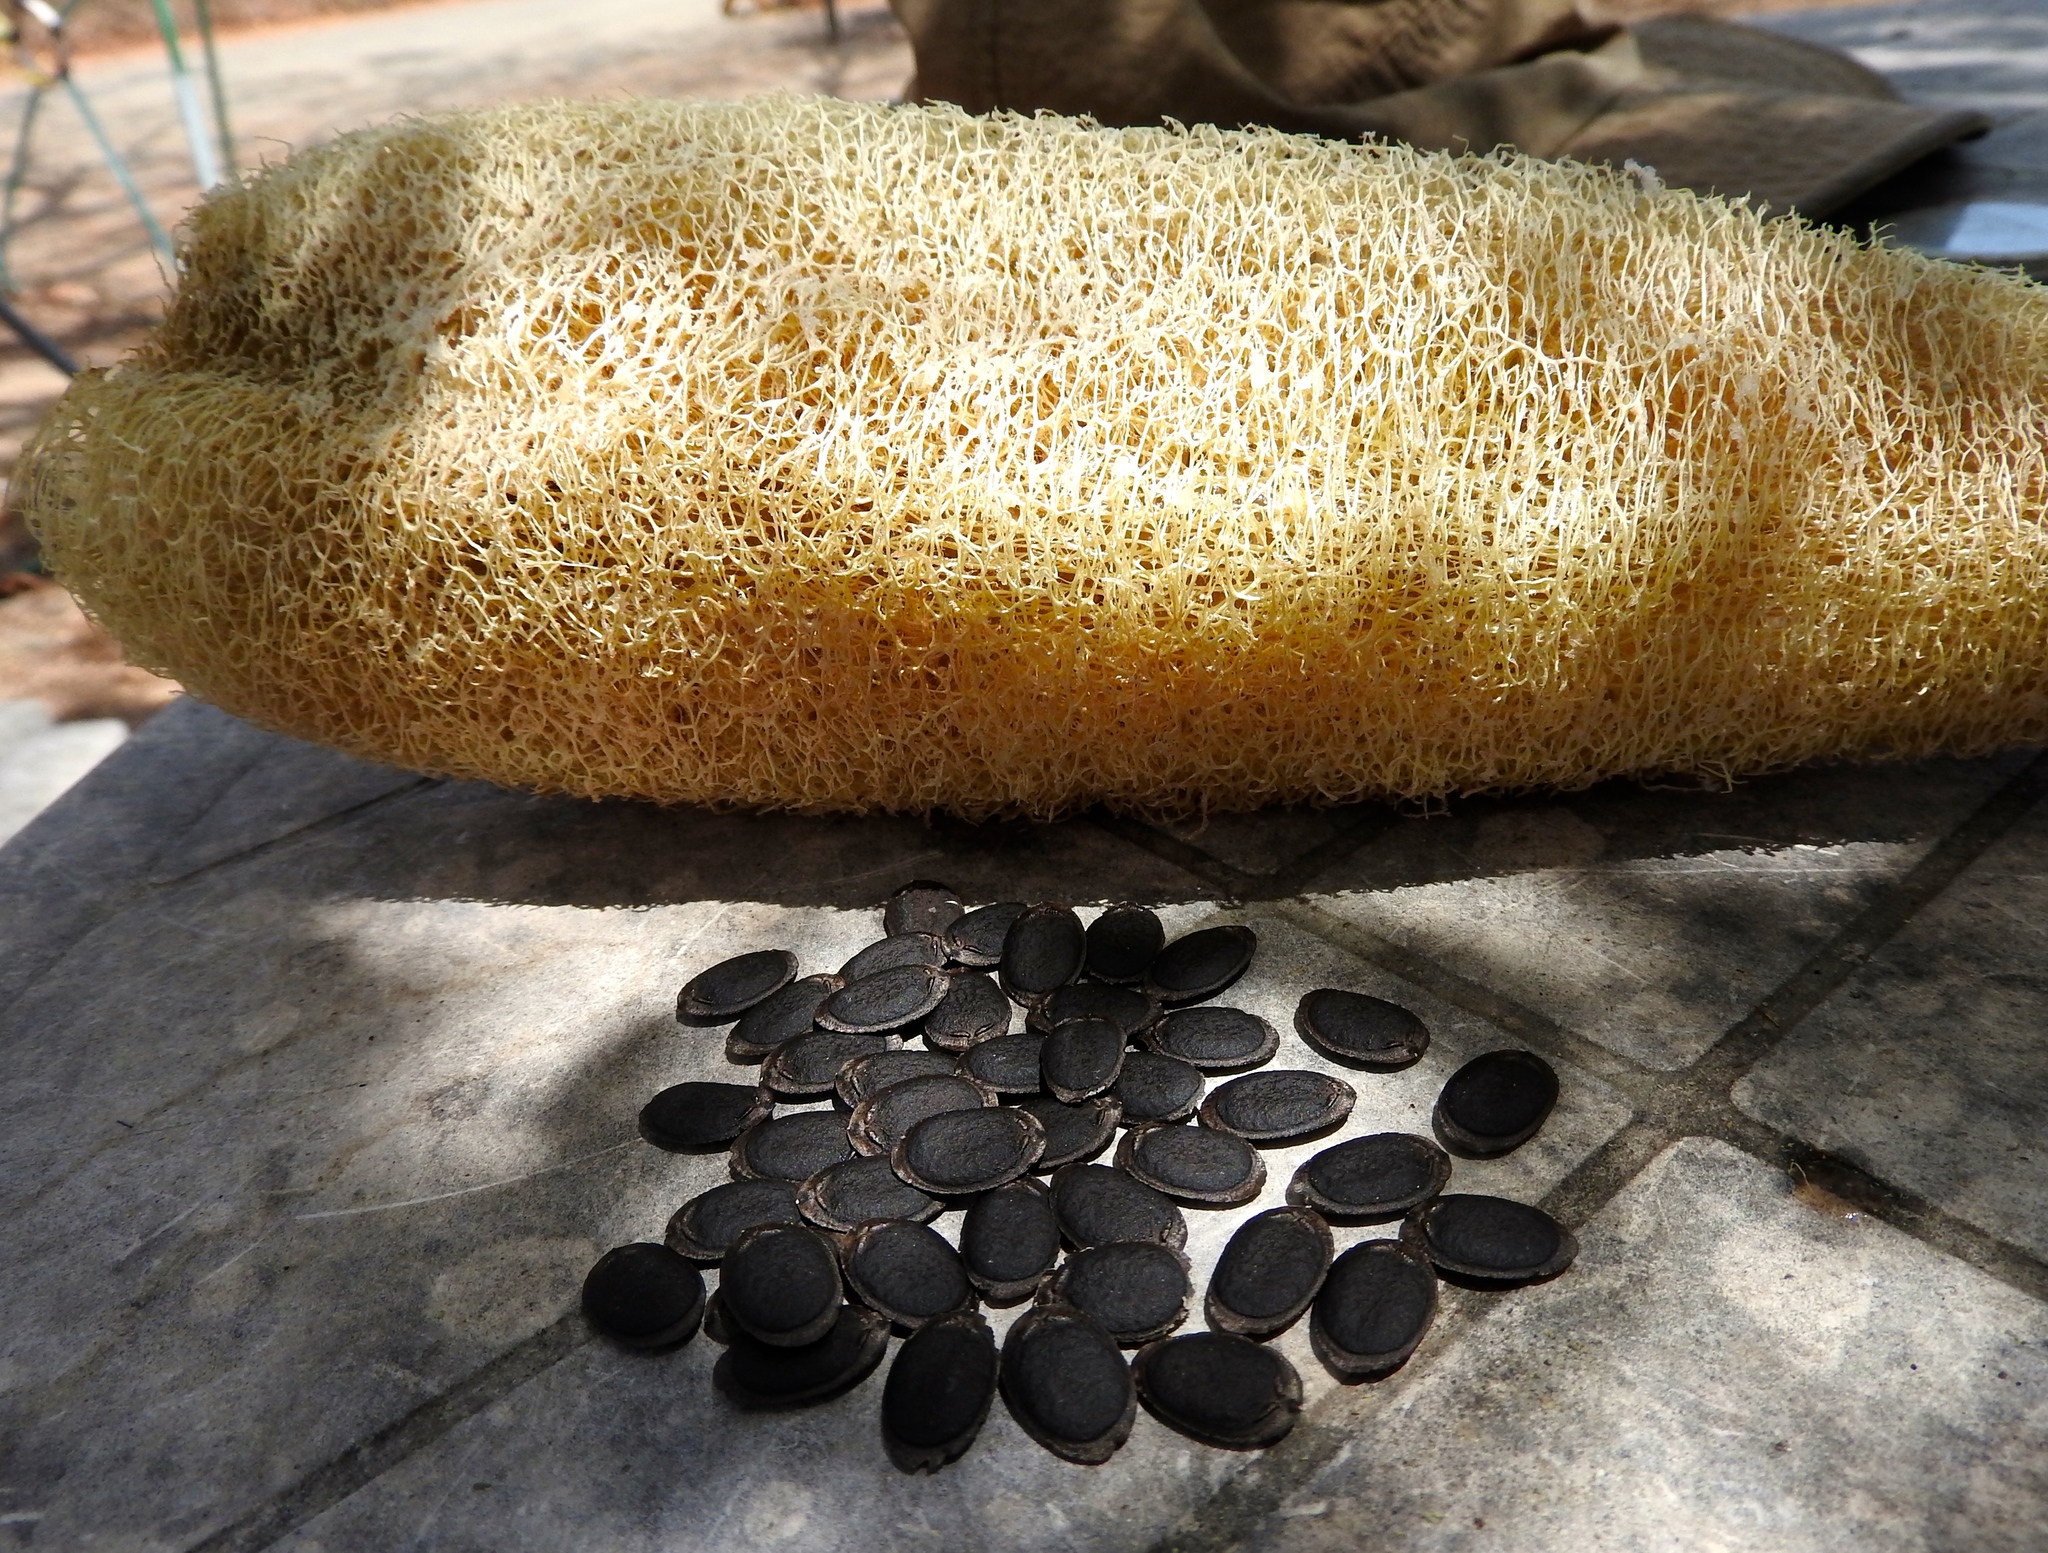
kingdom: Plantae
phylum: Tracheophyta
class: Magnoliopsida
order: Cucurbitales
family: Cucurbitaceae
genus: Luffa
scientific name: Luffa aegyptiaca
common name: Sponge gourd
